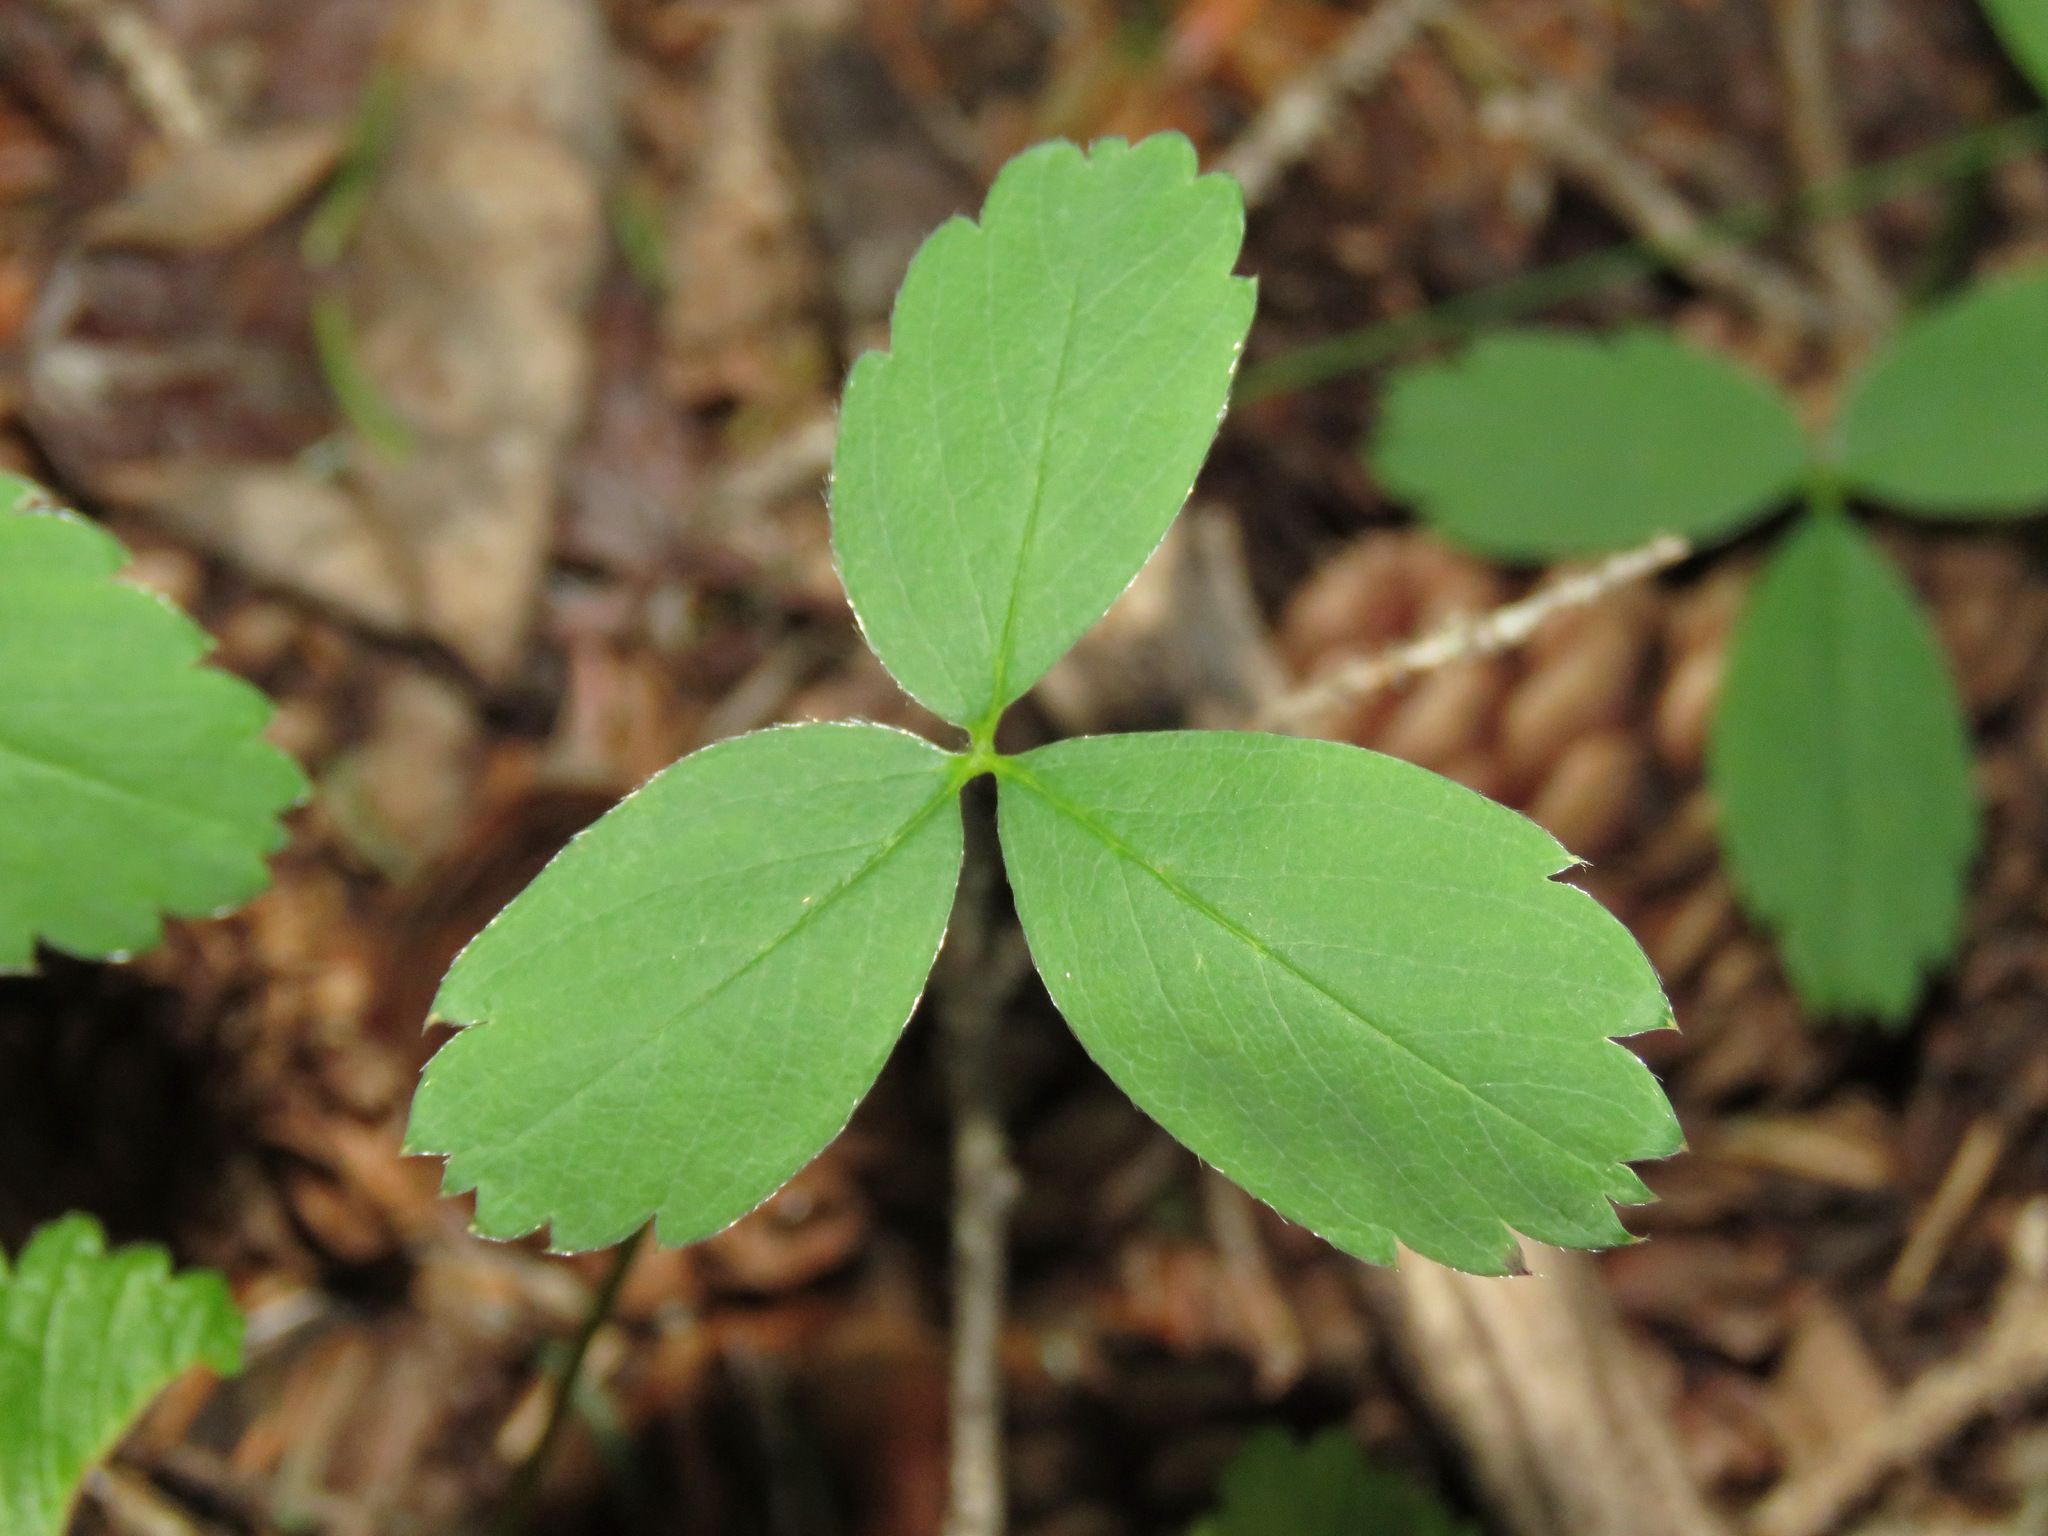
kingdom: Plantae
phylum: Tracheophyta
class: Magnoliopsida
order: Rosales
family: Rosaceae
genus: Fragaria
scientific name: Fragaria virginiana
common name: Thickleaved wild strawberry
